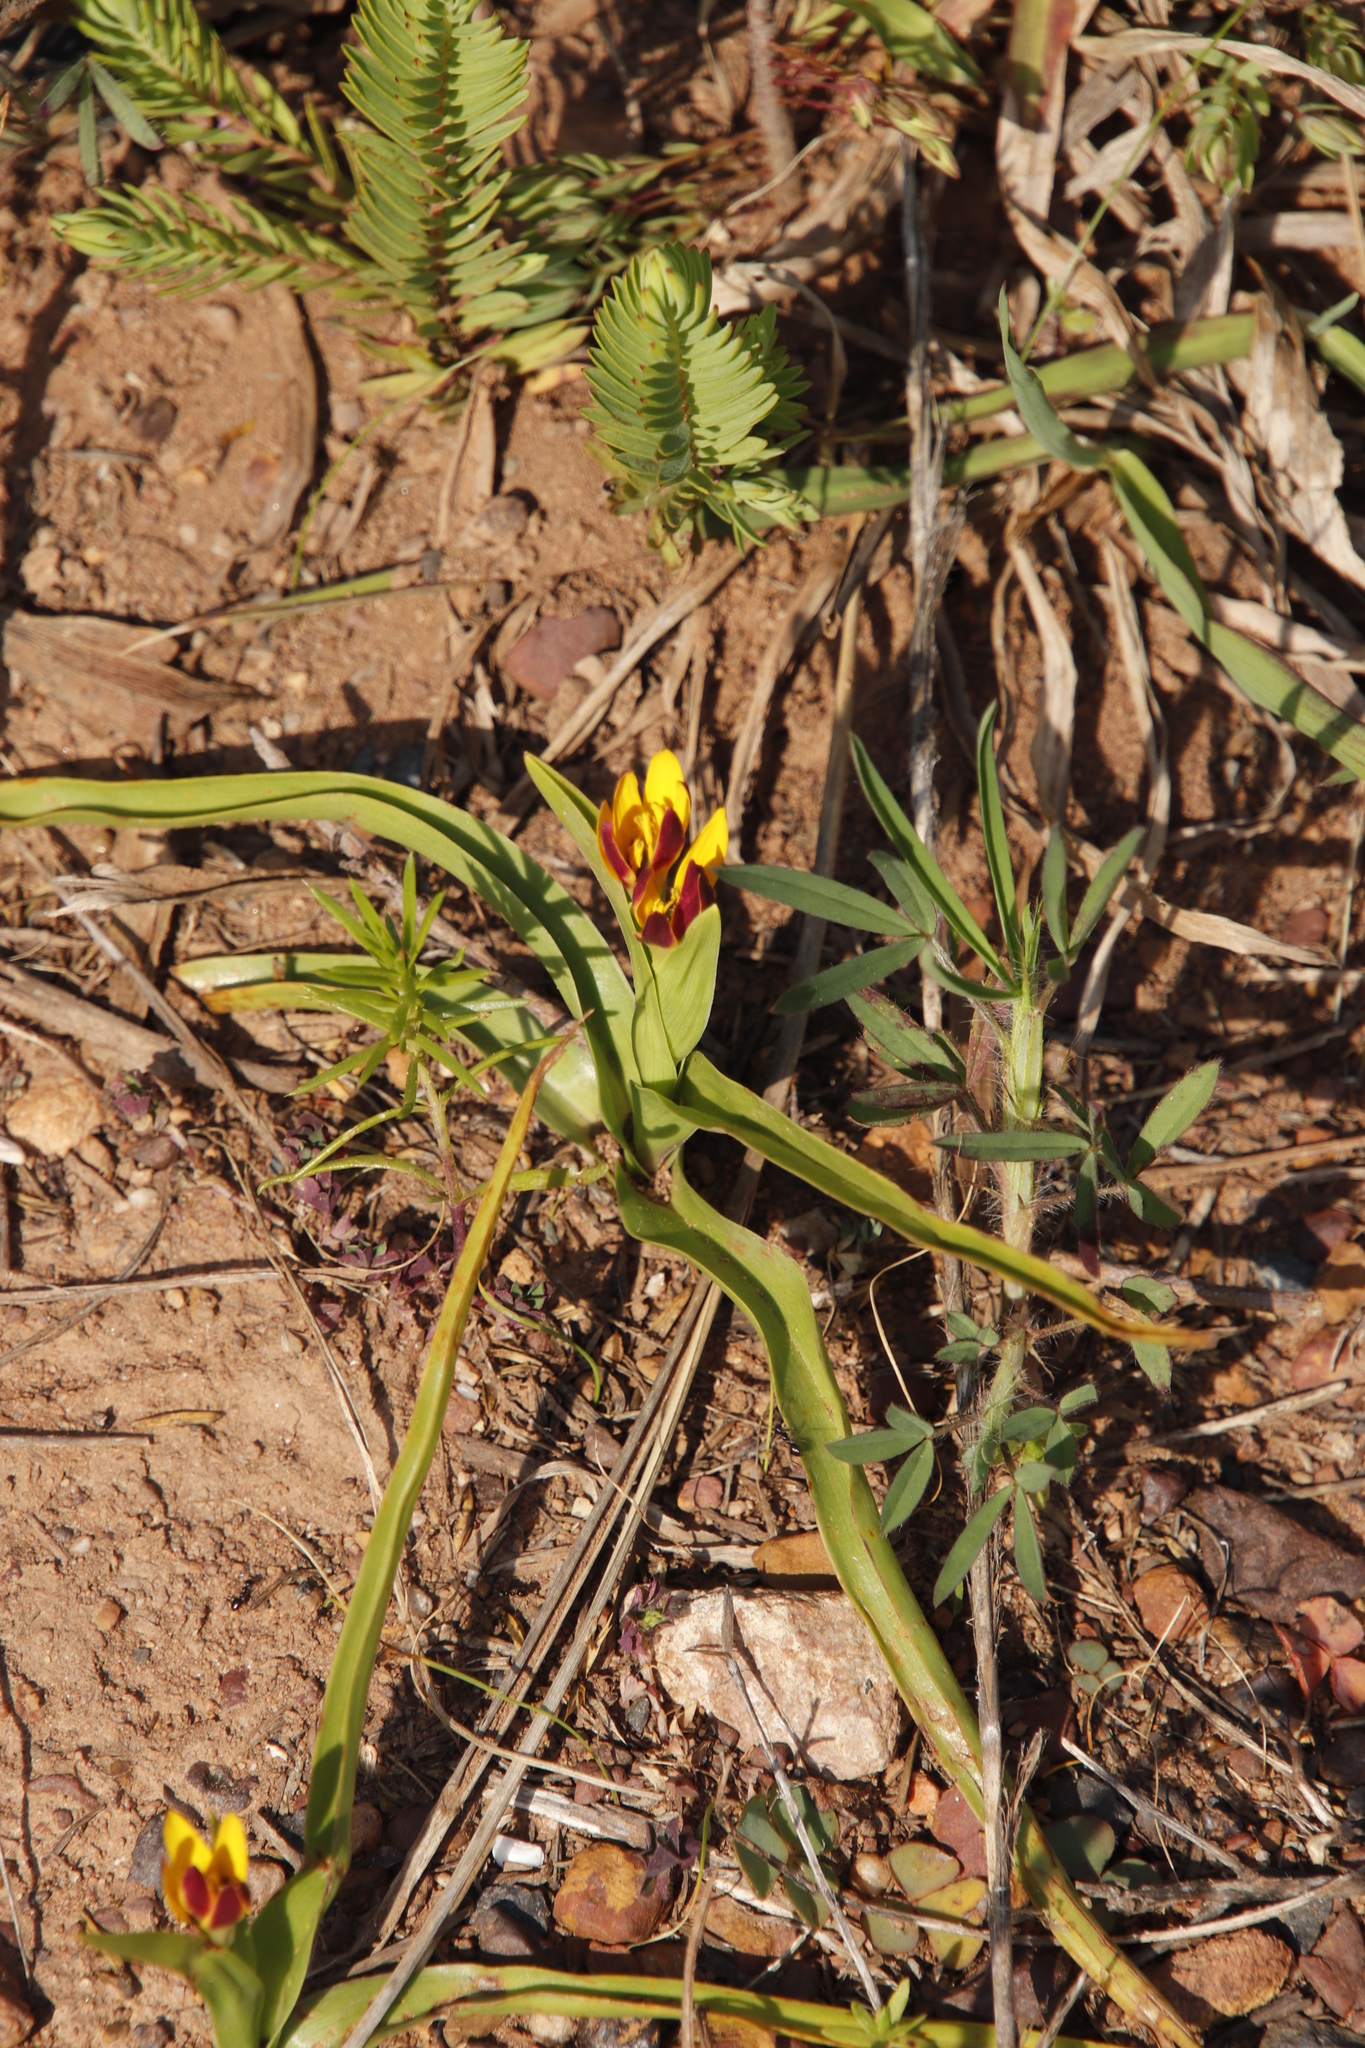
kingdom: Plantae
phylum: Tracheophyta
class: Liliopsida
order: Liliales
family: Colchicaceae
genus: Baeometra
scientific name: Baeometra uniflora
